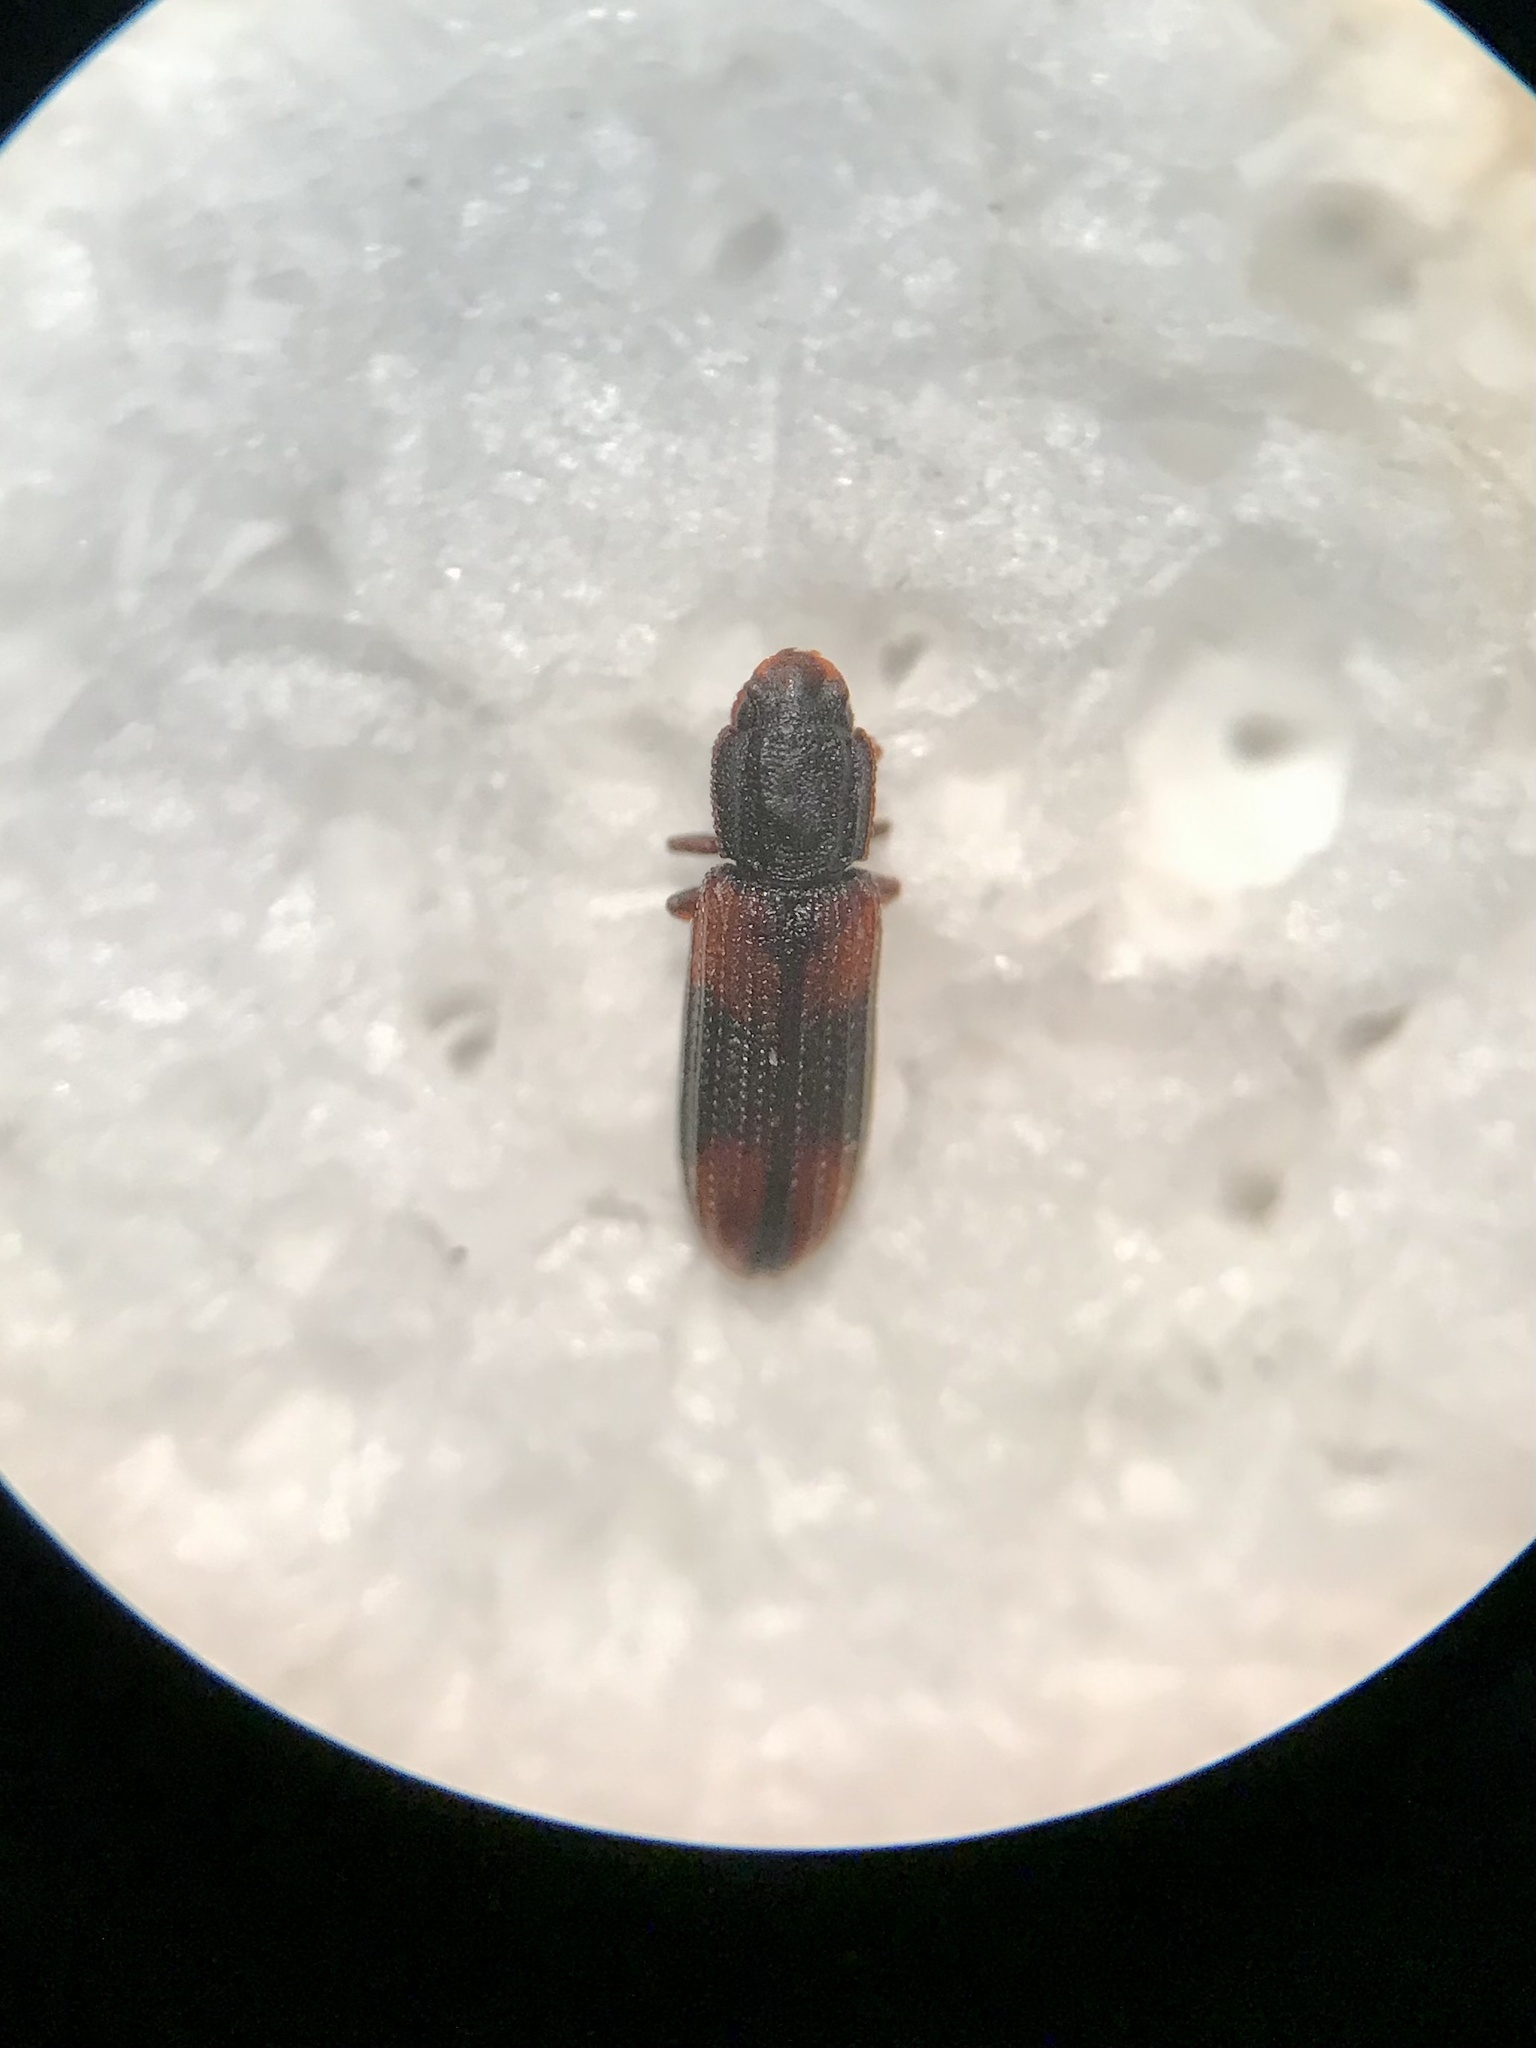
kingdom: Animalia
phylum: Arthropoda
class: Insecta
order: Coleoptera
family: Zopheridae
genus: Bitoma
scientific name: Bitoma crenata
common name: Bark beetle
